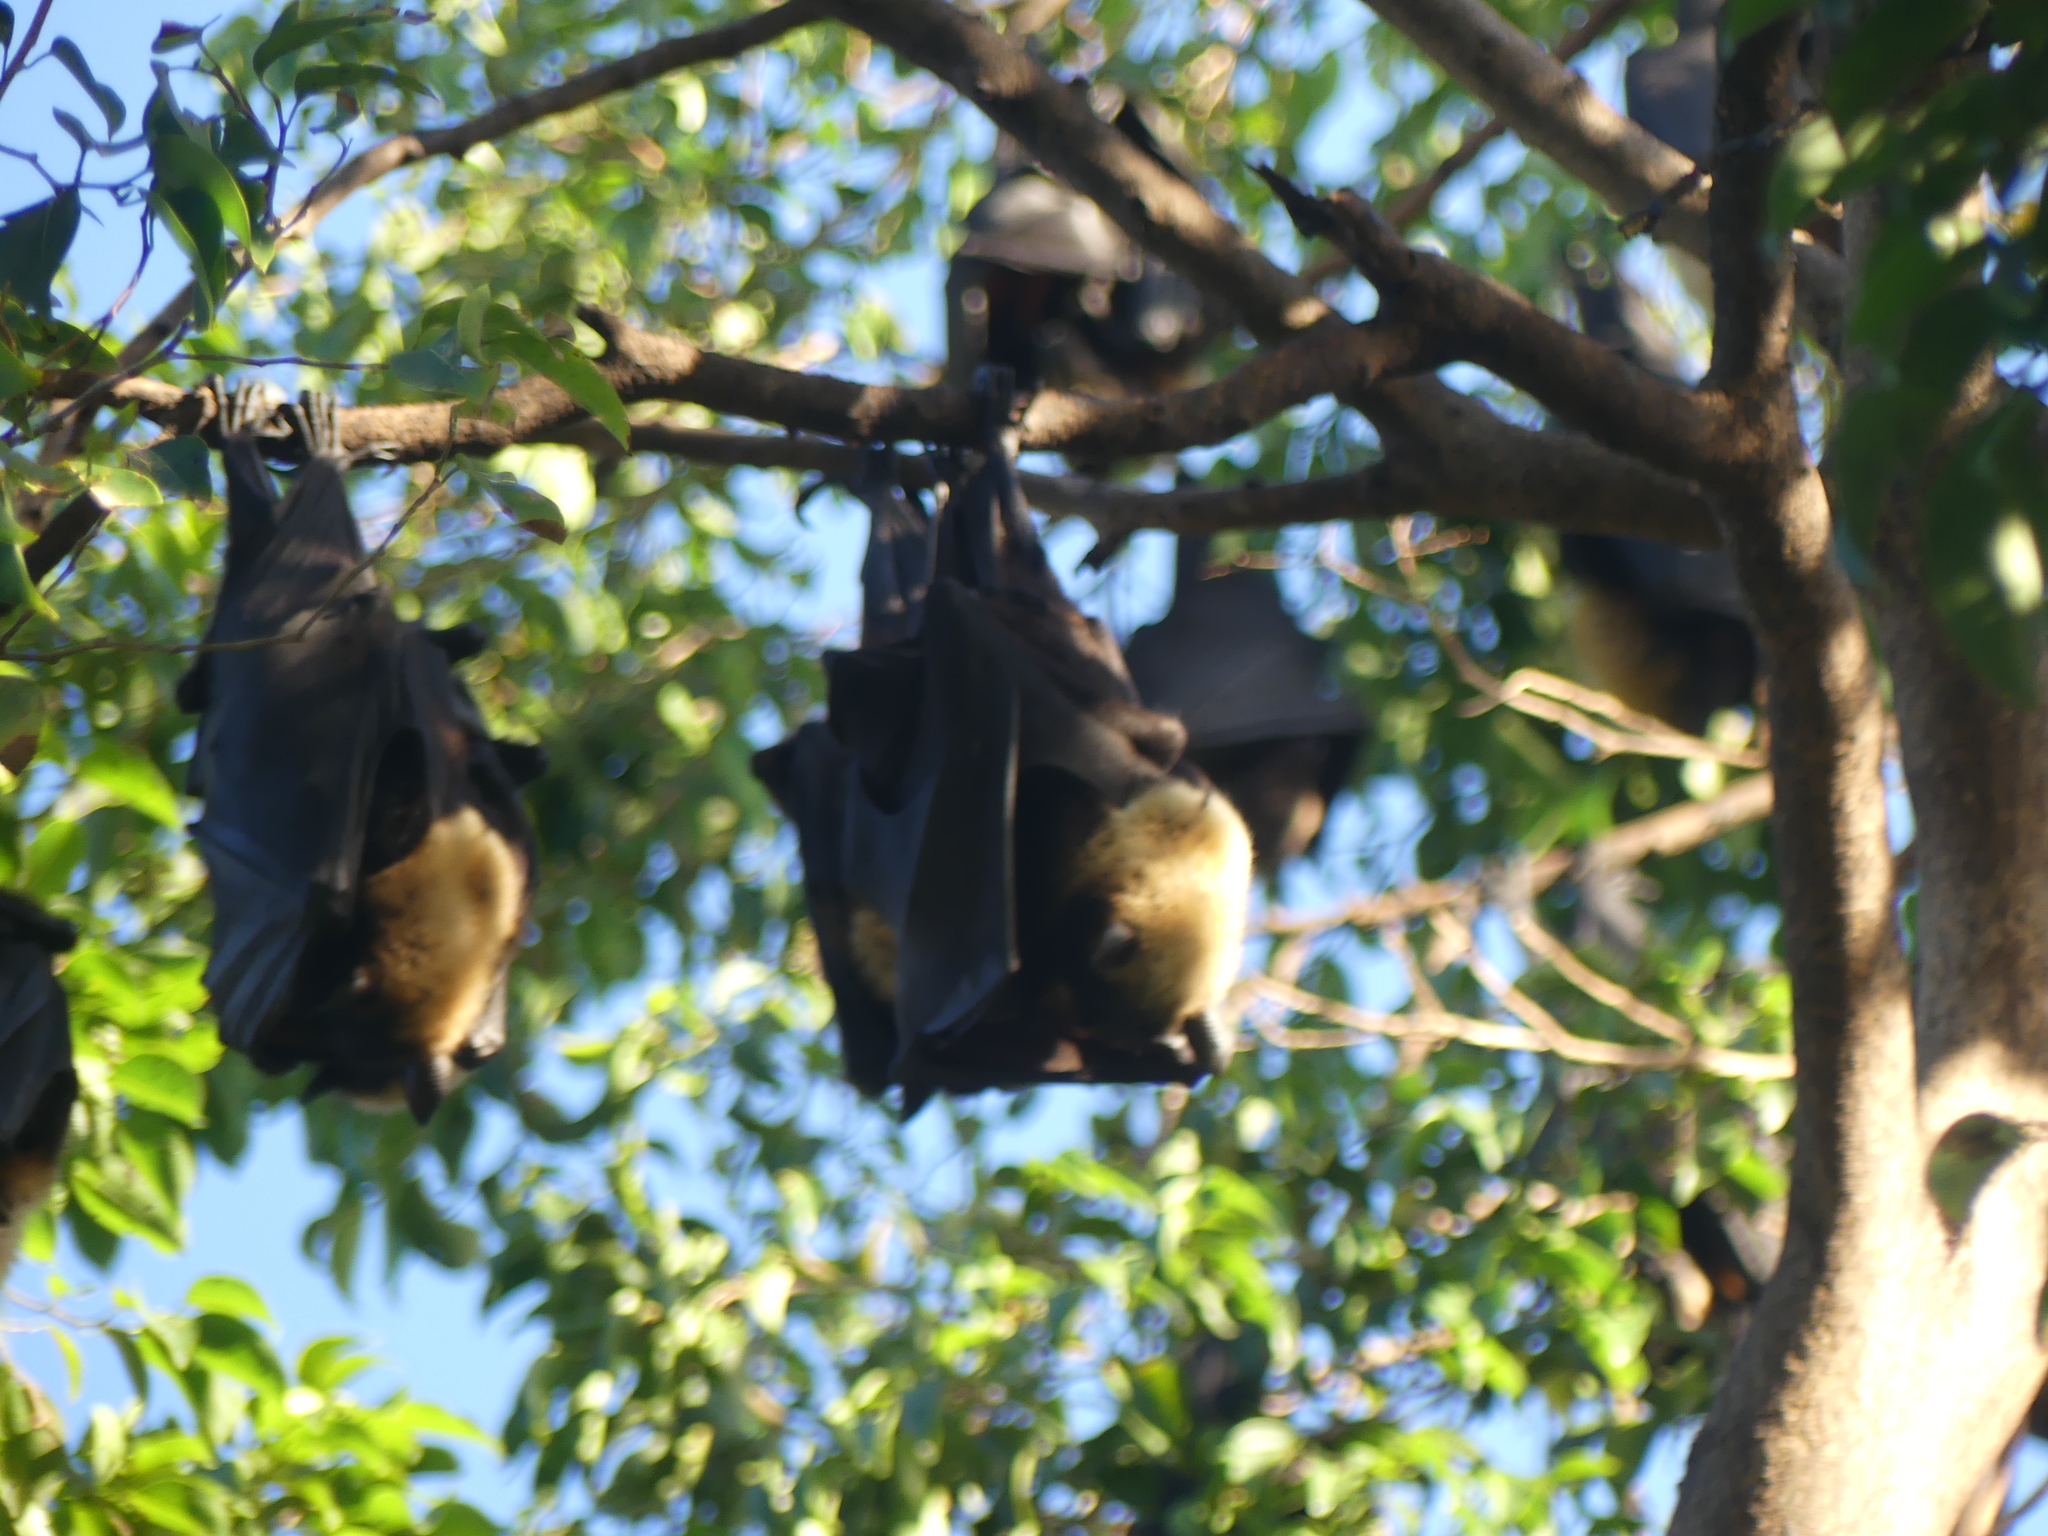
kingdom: Animalia
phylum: Chordata
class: Mammalia
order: Chiroptera
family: Pteropodidae
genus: Pteropus
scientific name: Pteropus conspicillatus
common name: Spectacled flying fox
